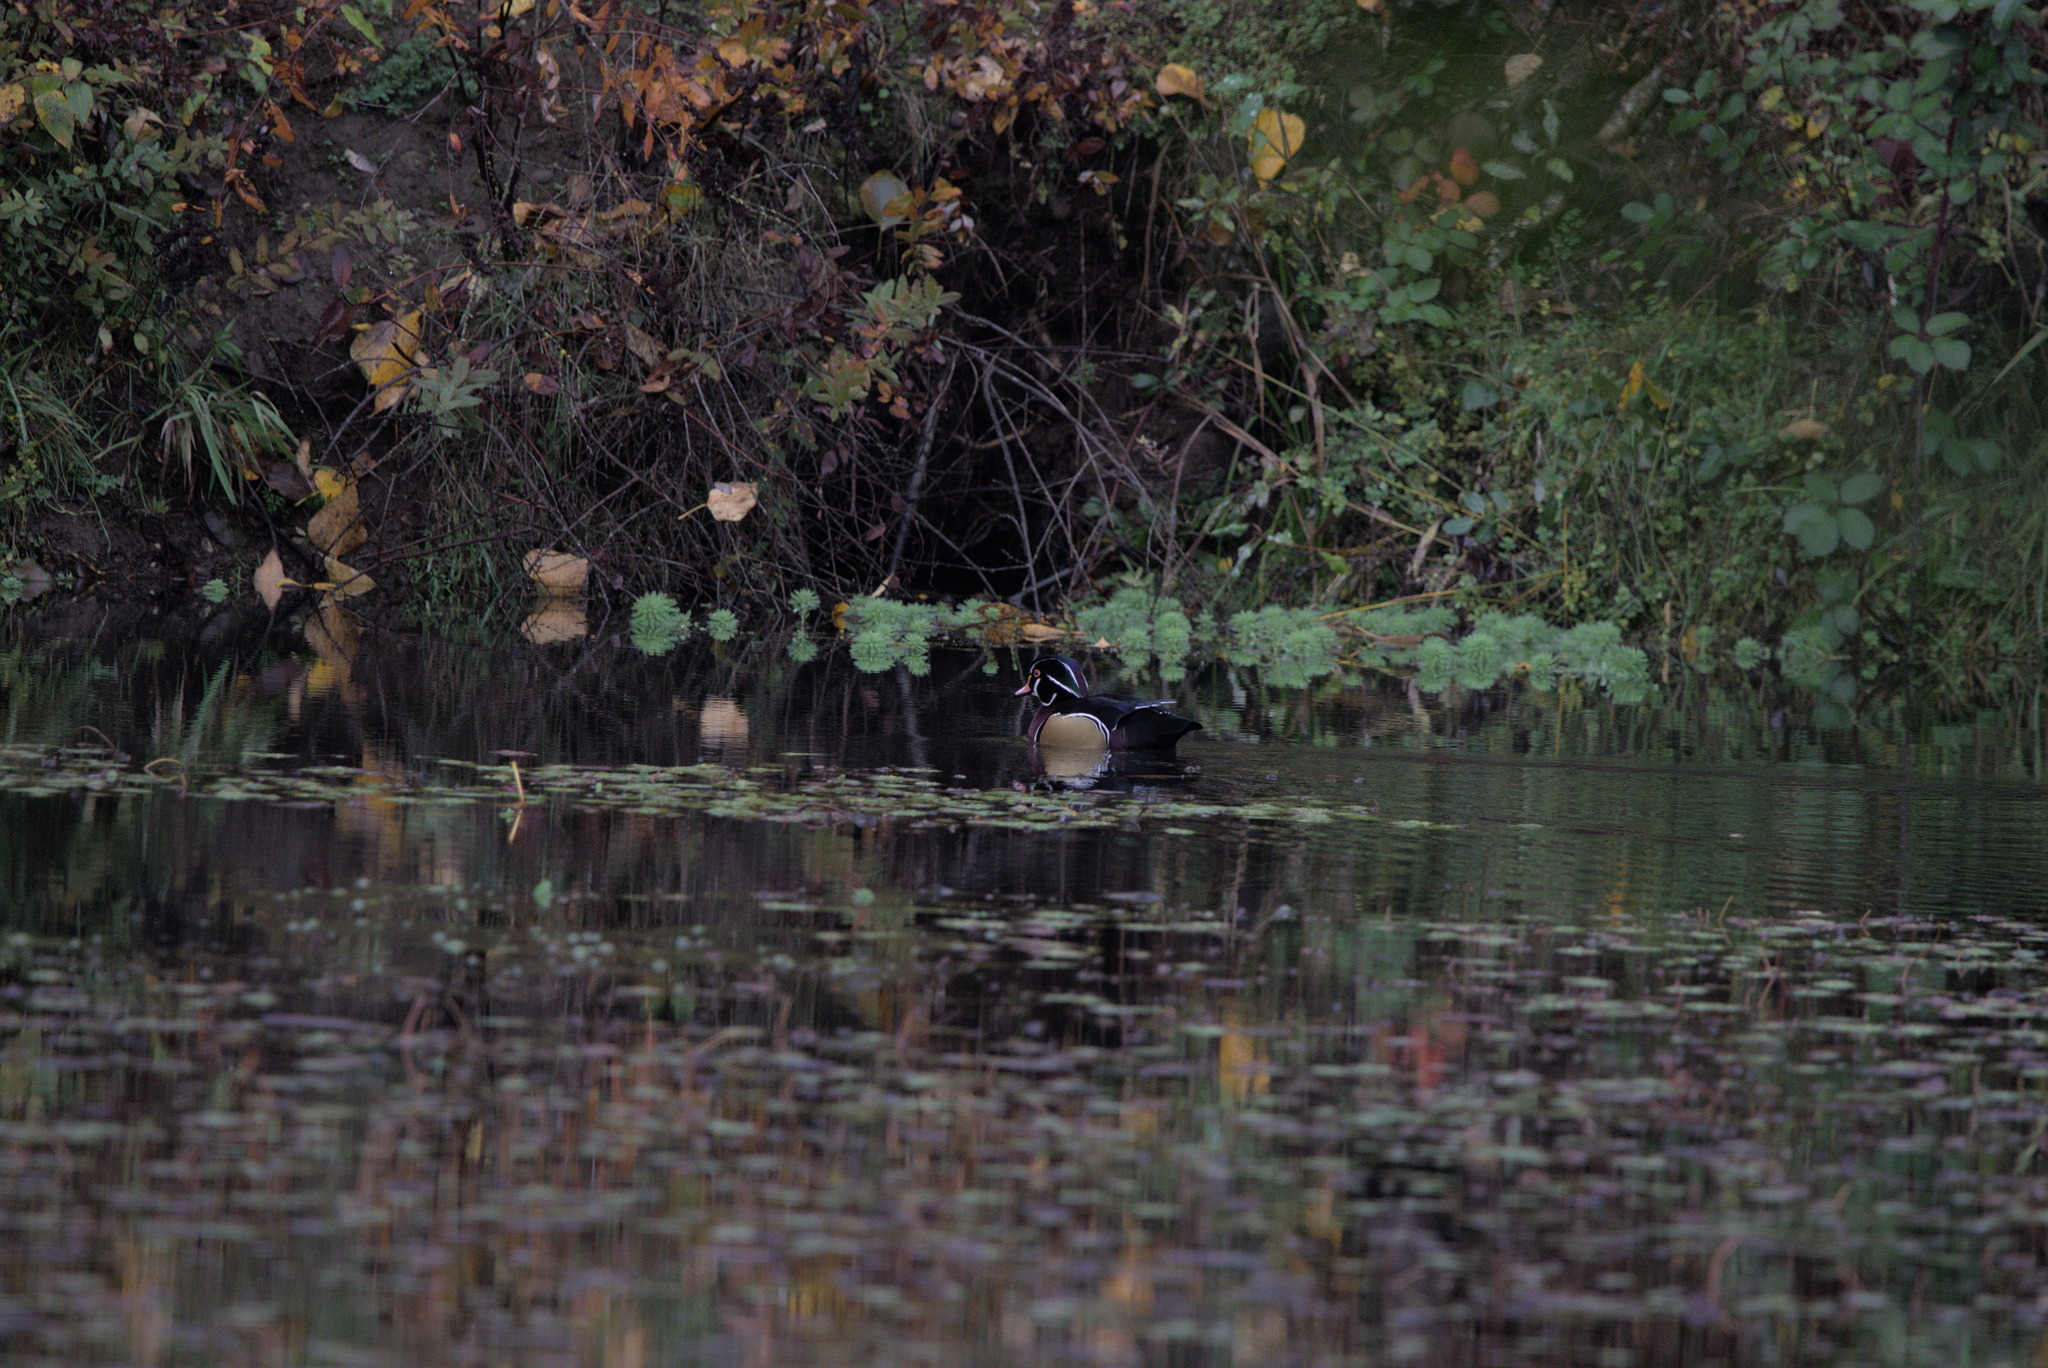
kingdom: Animalia
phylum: Chordata
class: Aves
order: Anseriformes
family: Anatidae
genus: Aix
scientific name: Aix sponsa
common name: Wood duck
